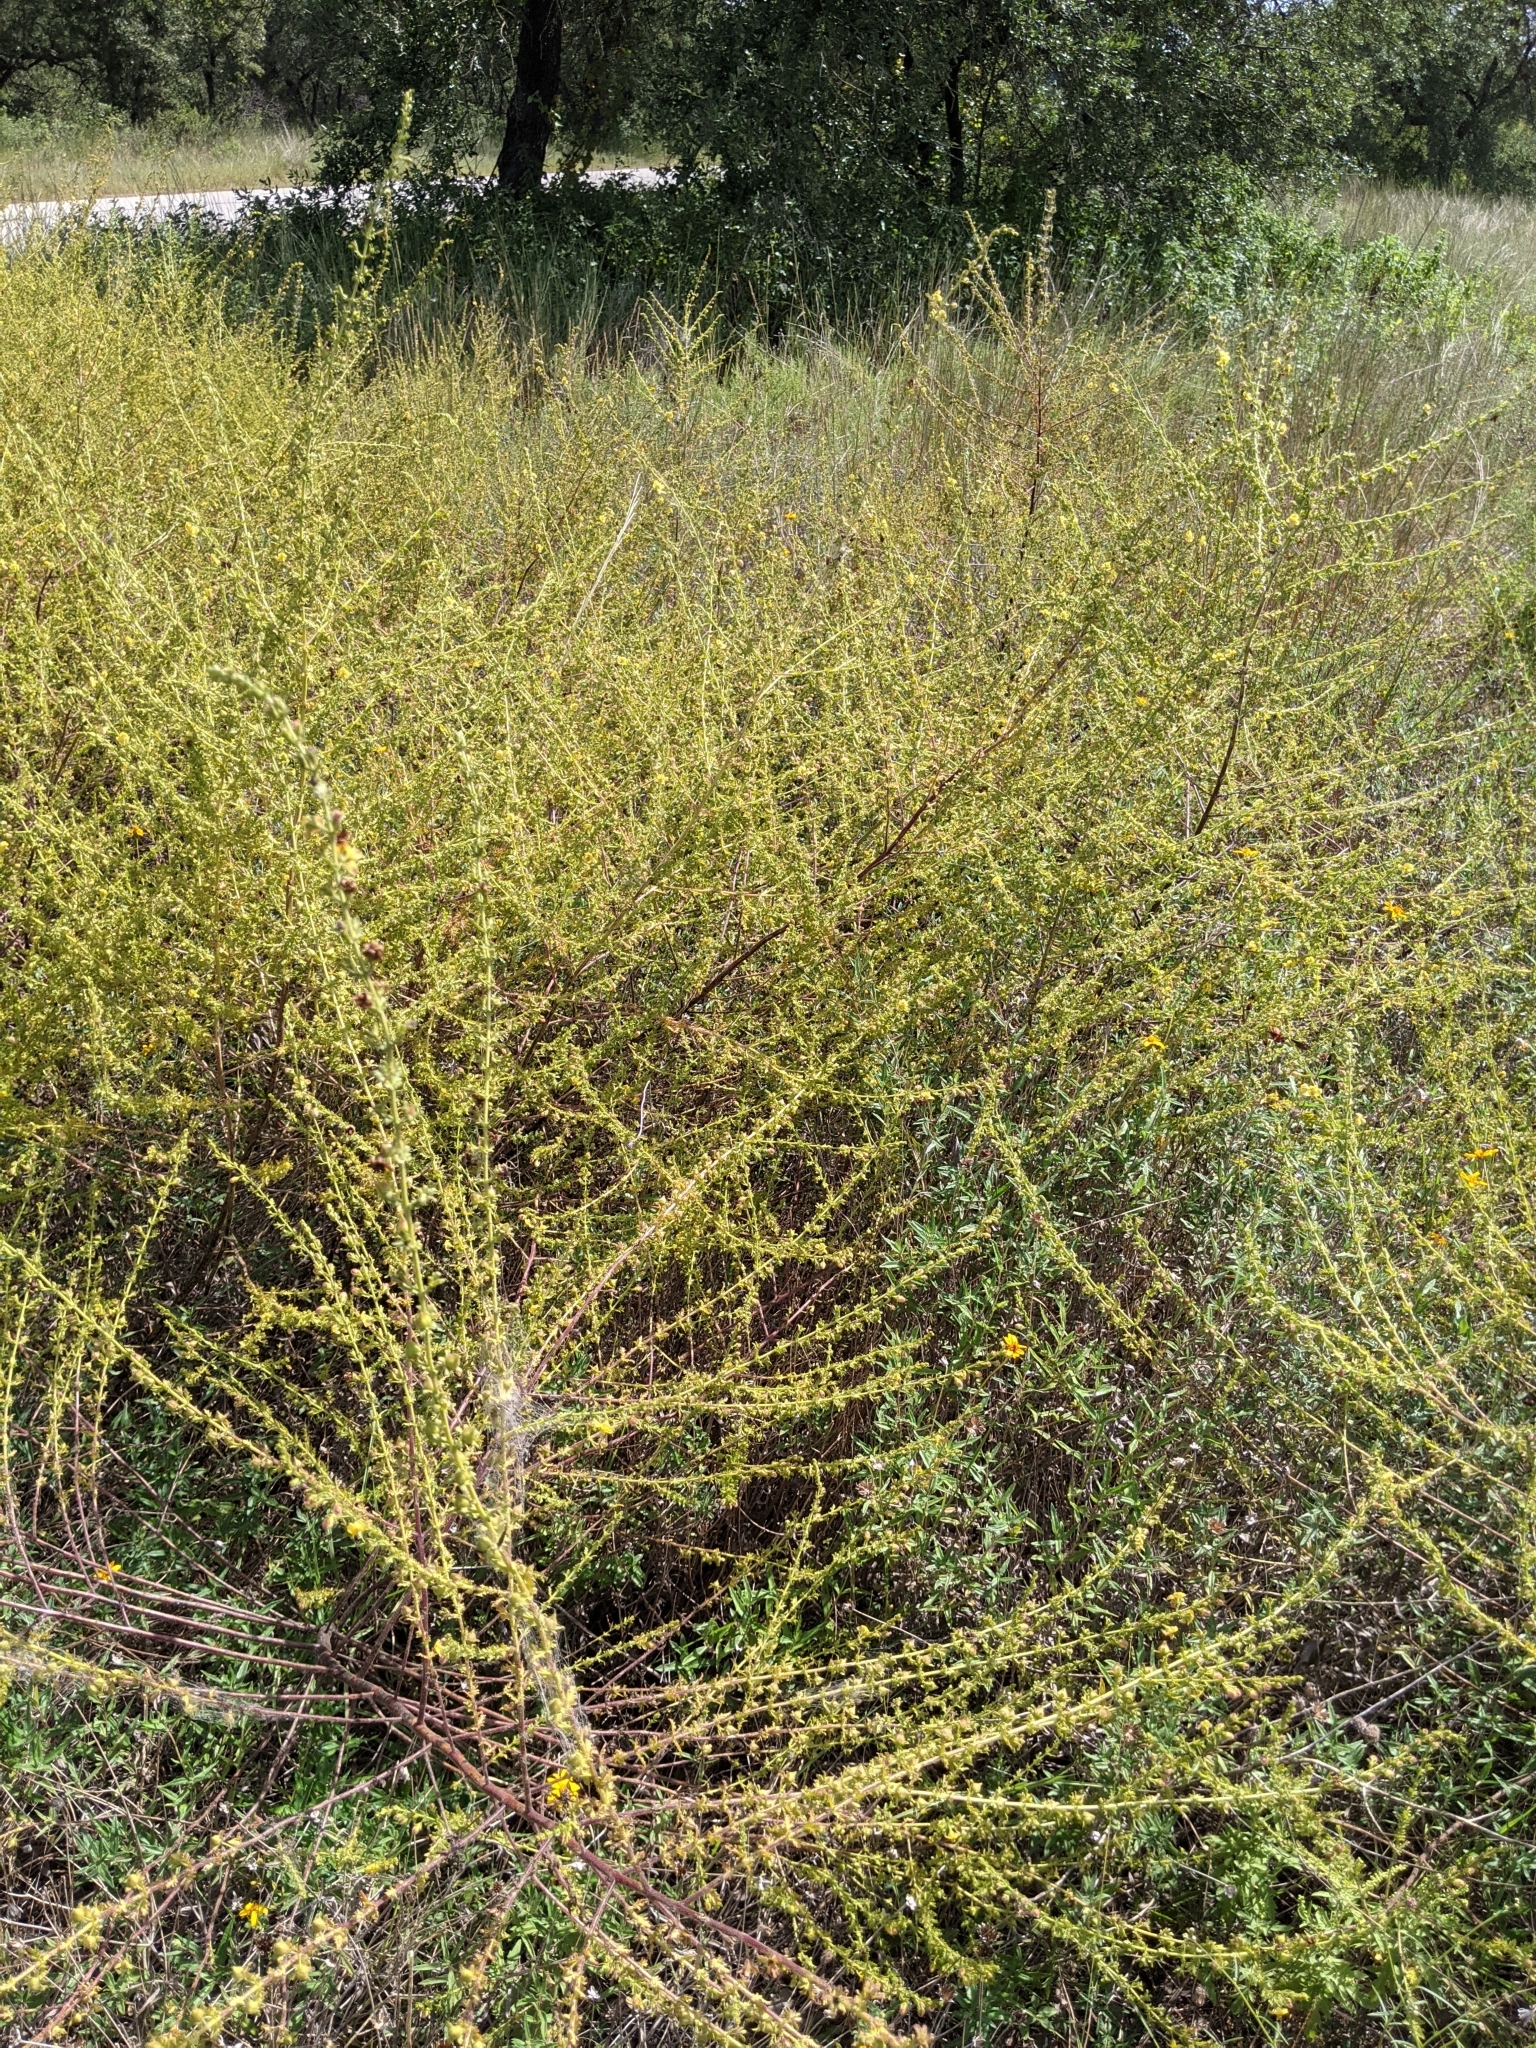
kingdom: Plantae
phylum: Tracheophyta
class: Magnoliopsida
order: Lamiales
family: Orobanchaceae
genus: Seymeria
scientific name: Seymeria bipinnatisecta
